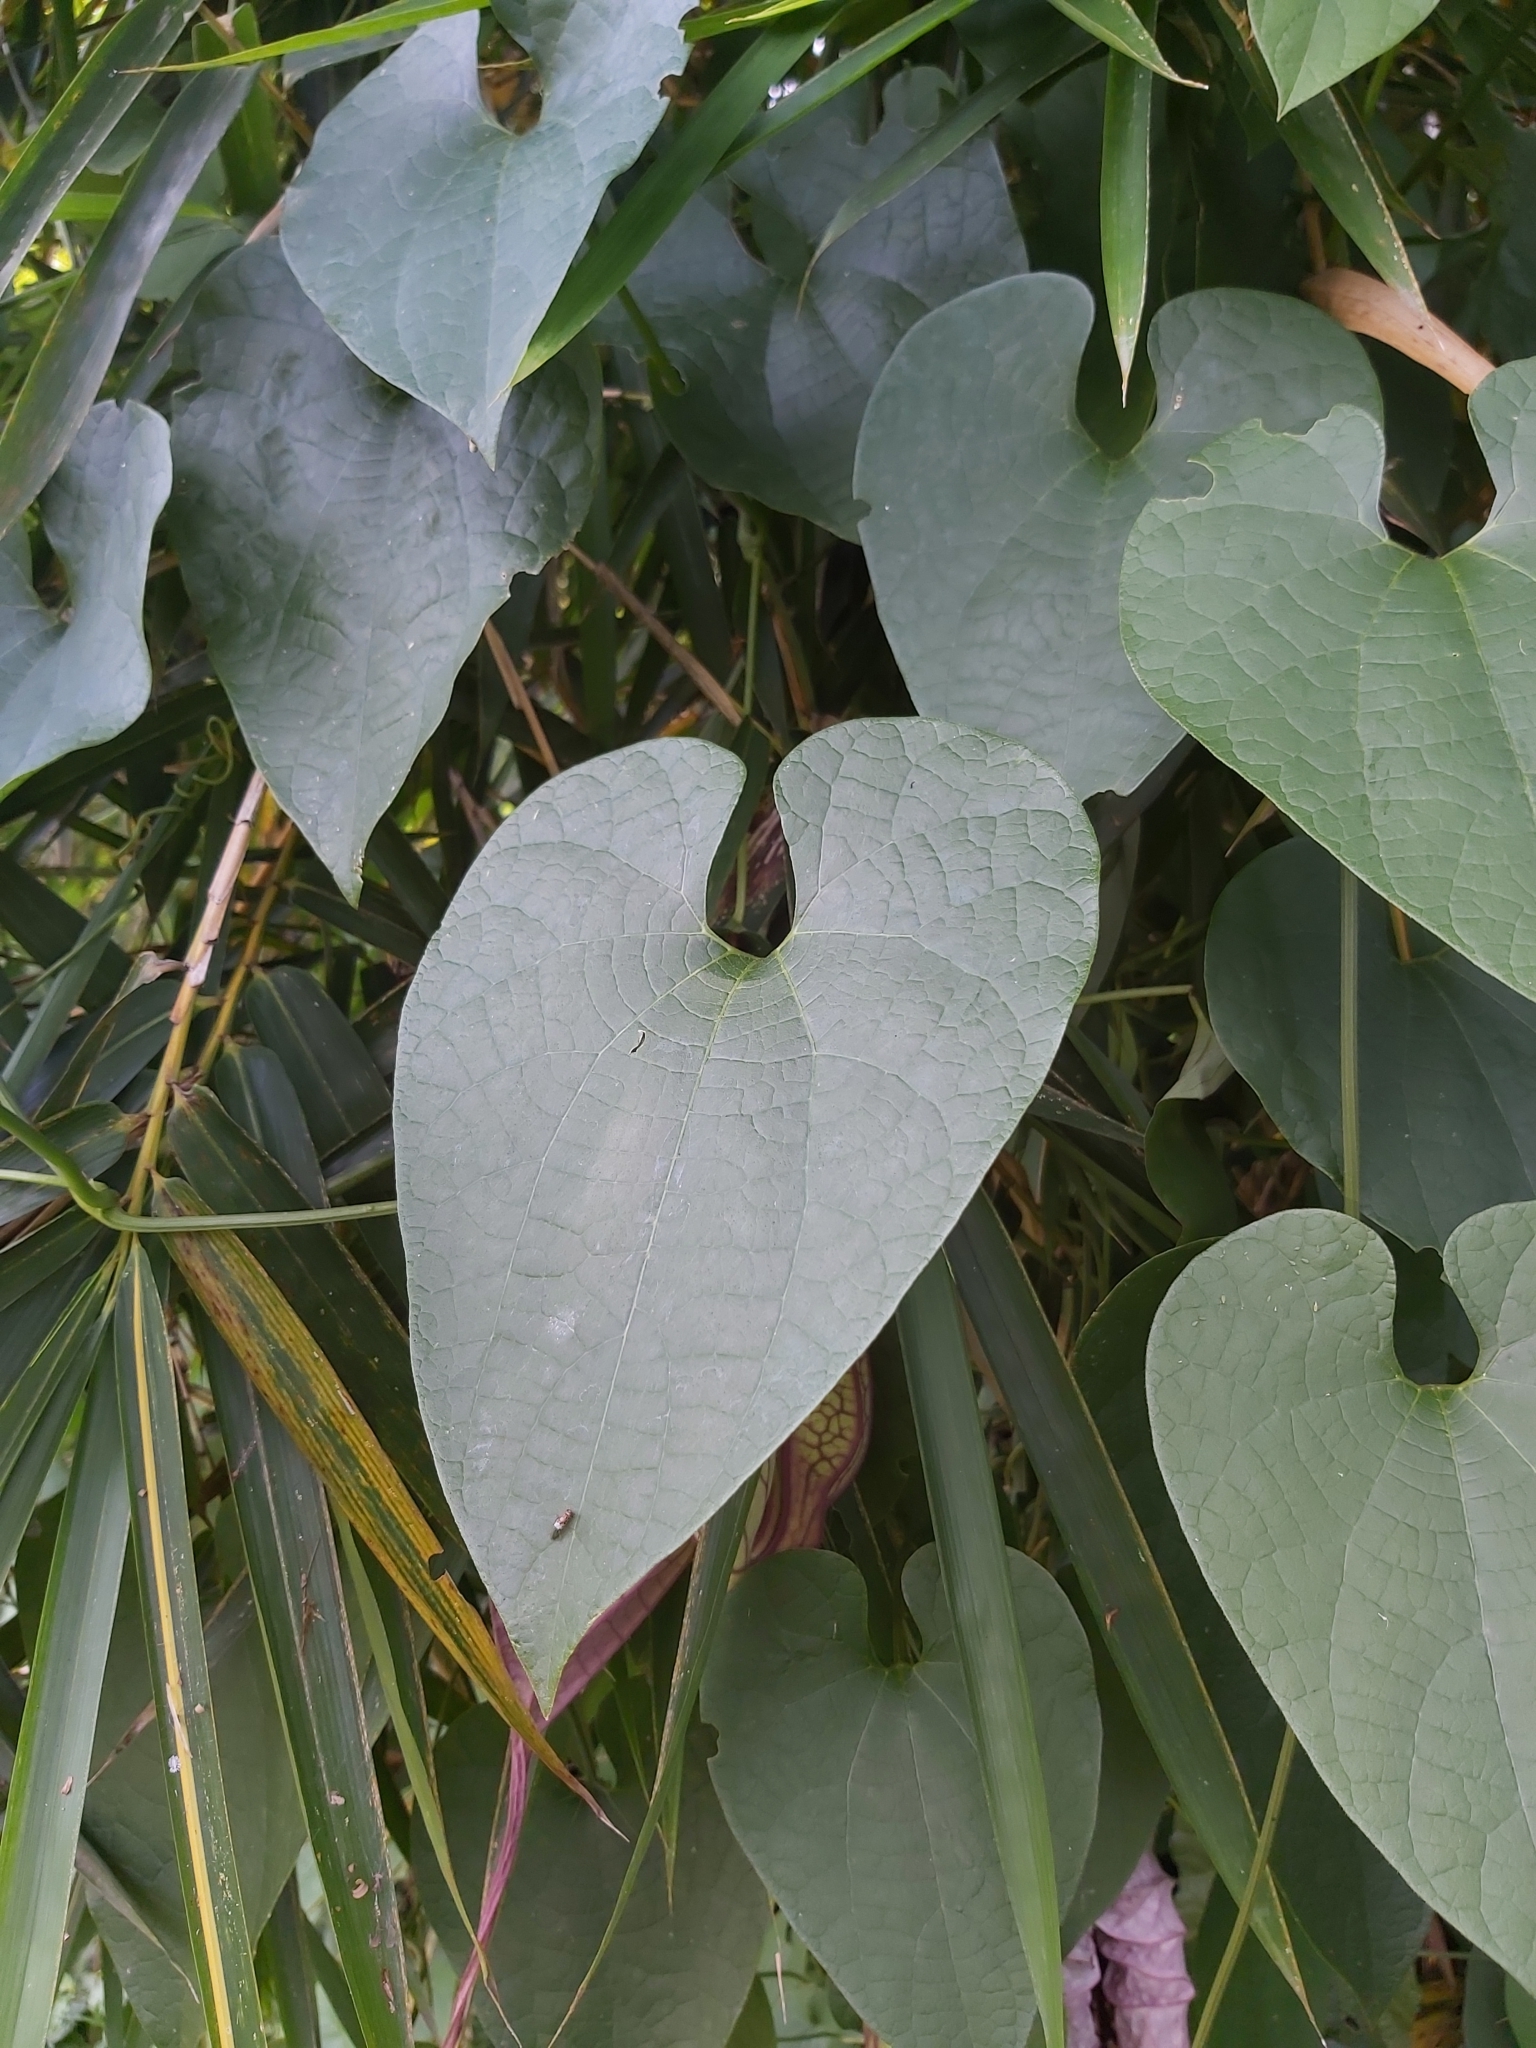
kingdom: Plantae
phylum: Tracheophyta
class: Magnoliopsida
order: Piperales
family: Aristolochiaceae
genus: Aristolochia
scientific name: Aristolochia grandiflora
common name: Pelicanflower
